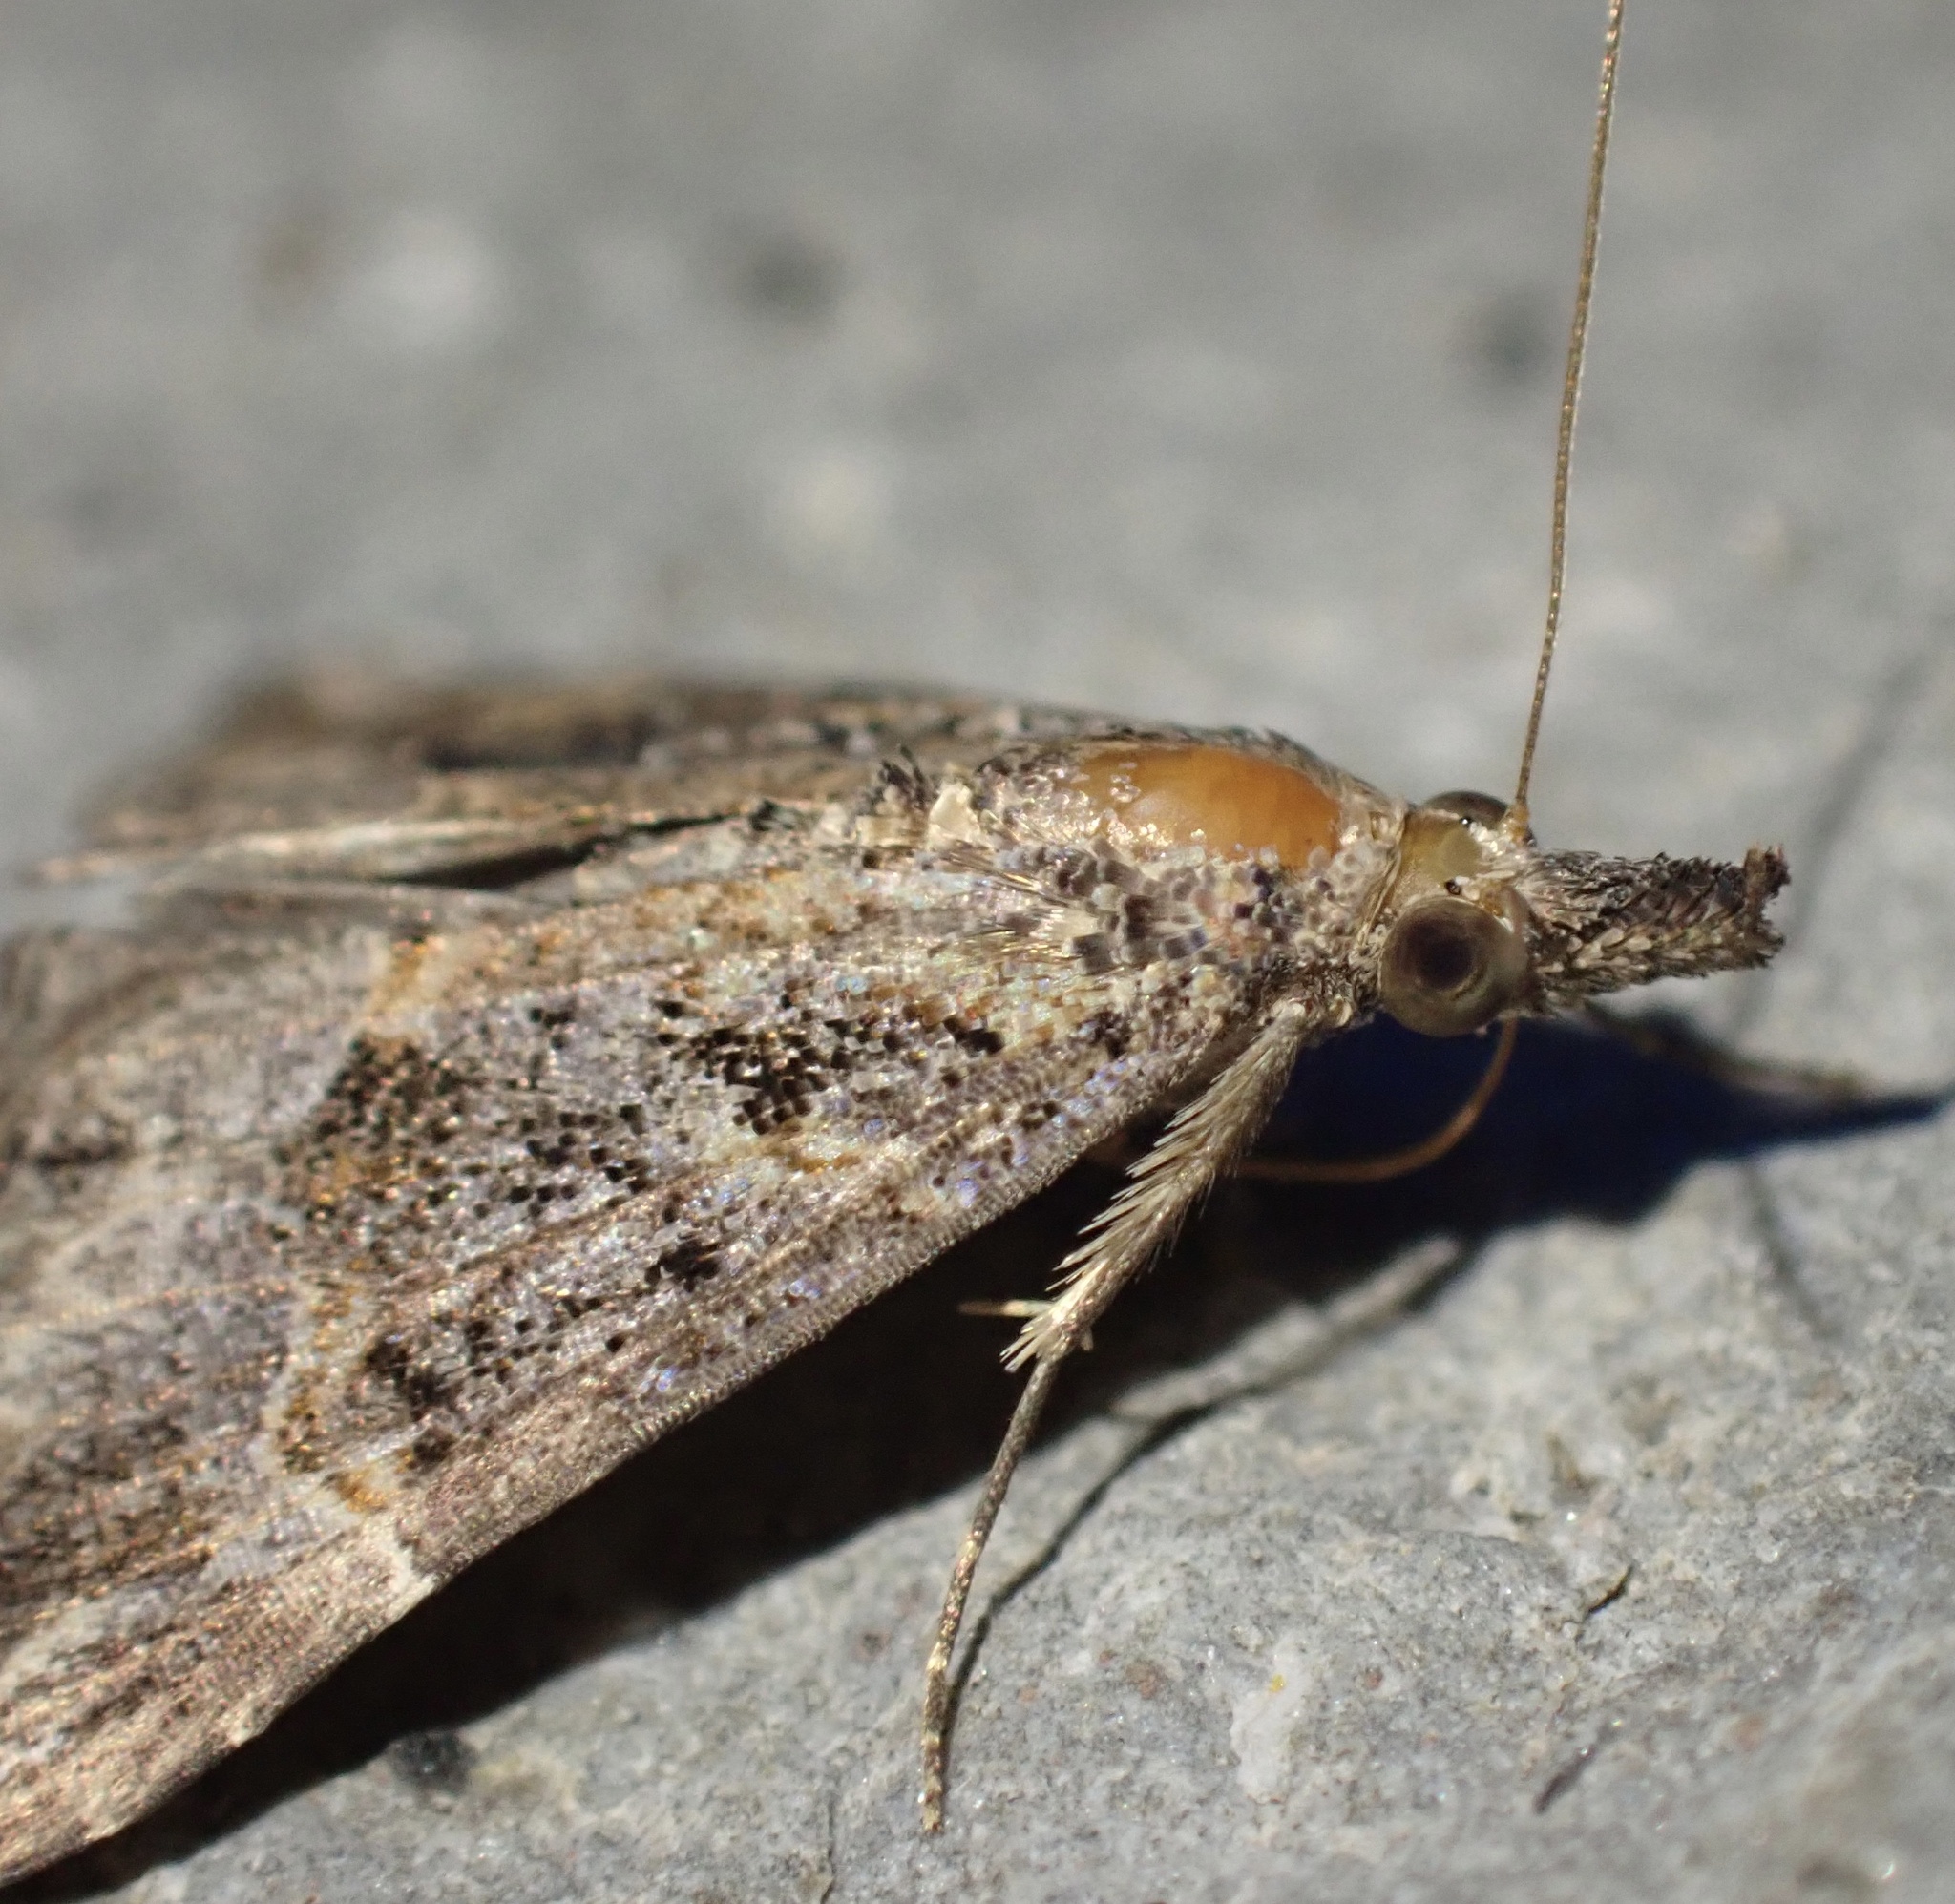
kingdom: Animalia
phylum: Arthropoda
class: Insecta
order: Lepidoptera
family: Erebidae
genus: Hypena
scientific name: Hypena commixtalis
